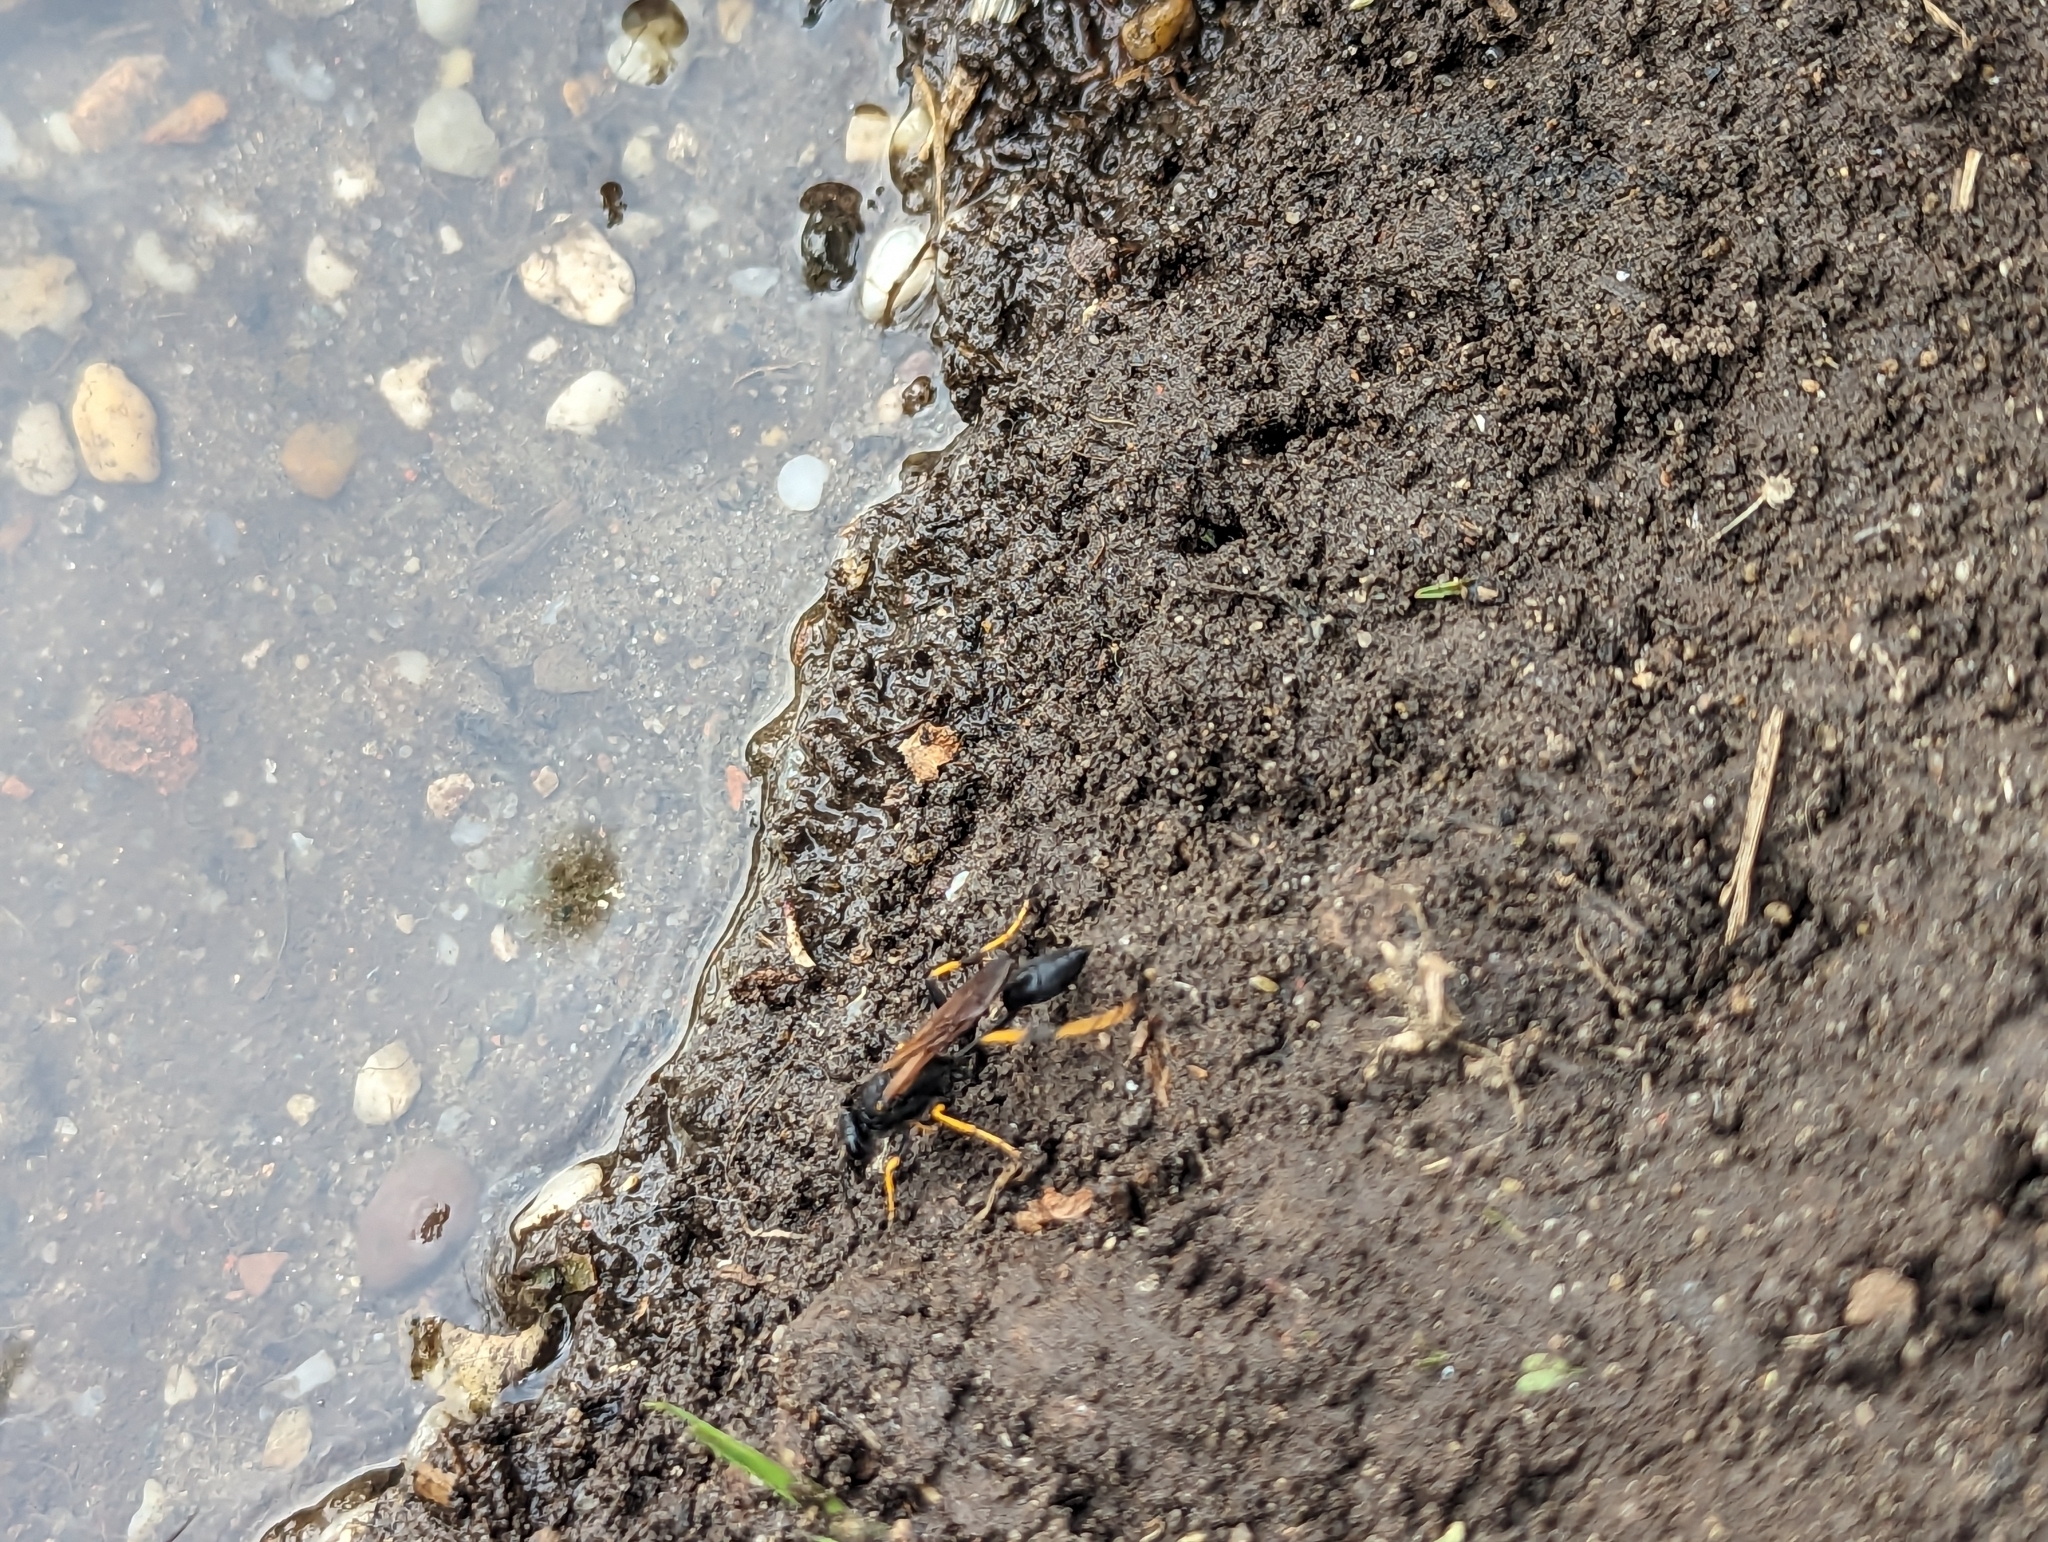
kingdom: Animalia
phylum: Arthropoda
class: Insecta
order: Hymenoptera
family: Sphecidae
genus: Sceliphron
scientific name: Sceliphron caementarium
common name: Mud dauber
